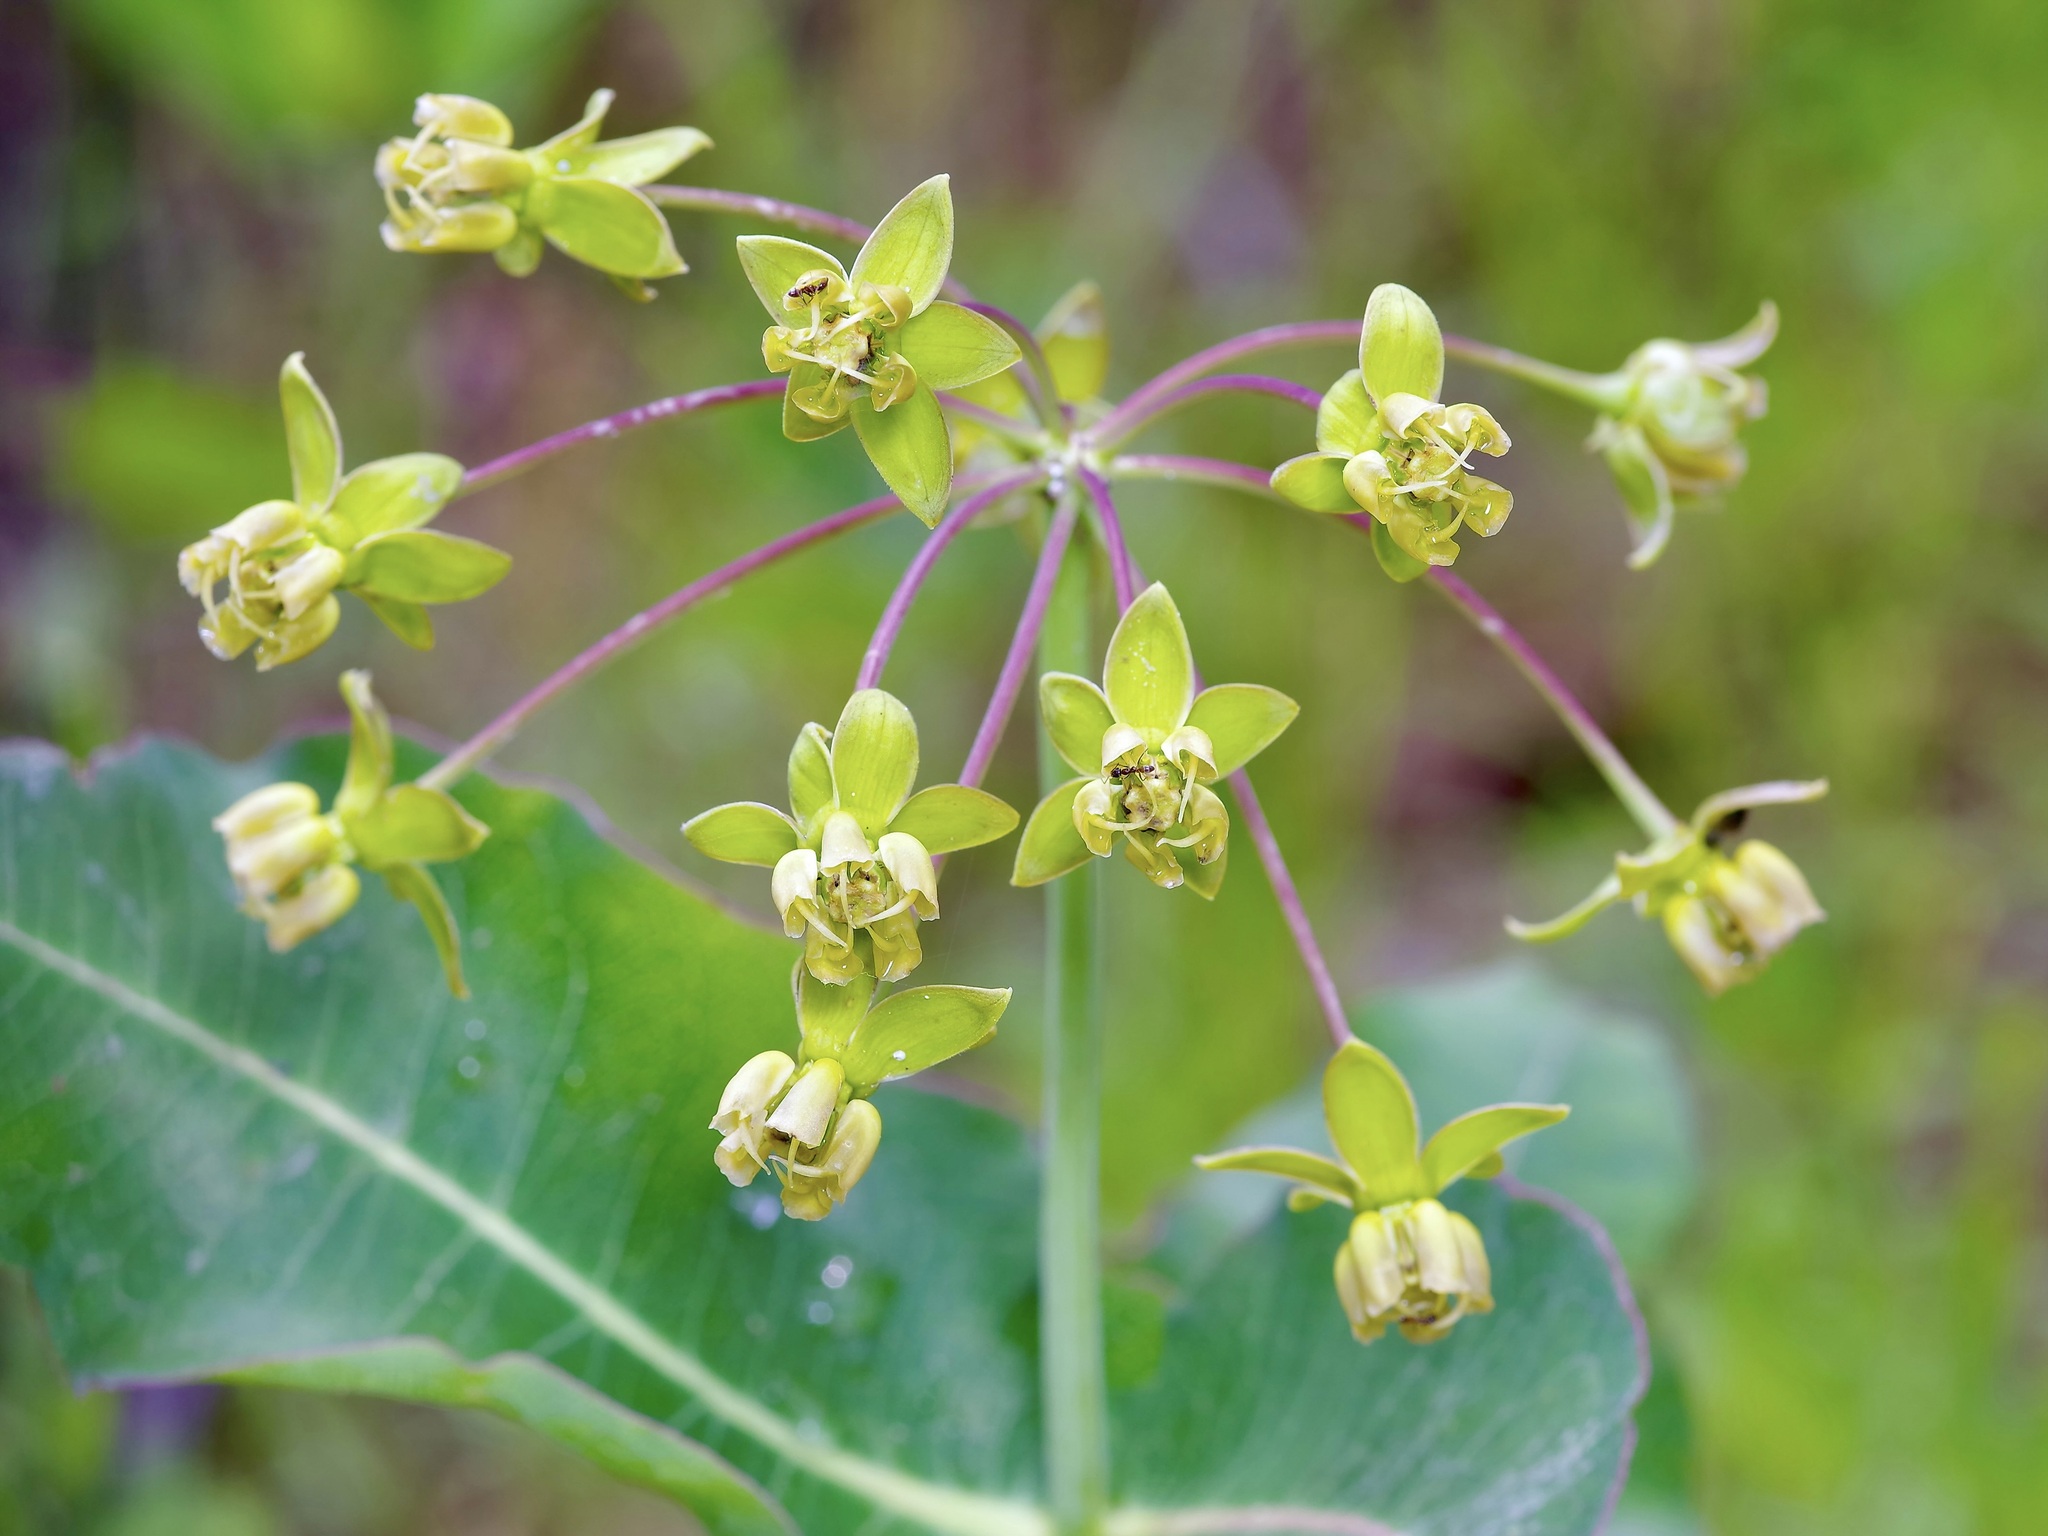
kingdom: Plantae
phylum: Tracheophyta
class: Magnoliopsida
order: Gentianales
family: Apocynaceae
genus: Asclepias
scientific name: Asclepias amplexicaulis
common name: Blunt-leaf milkweed
